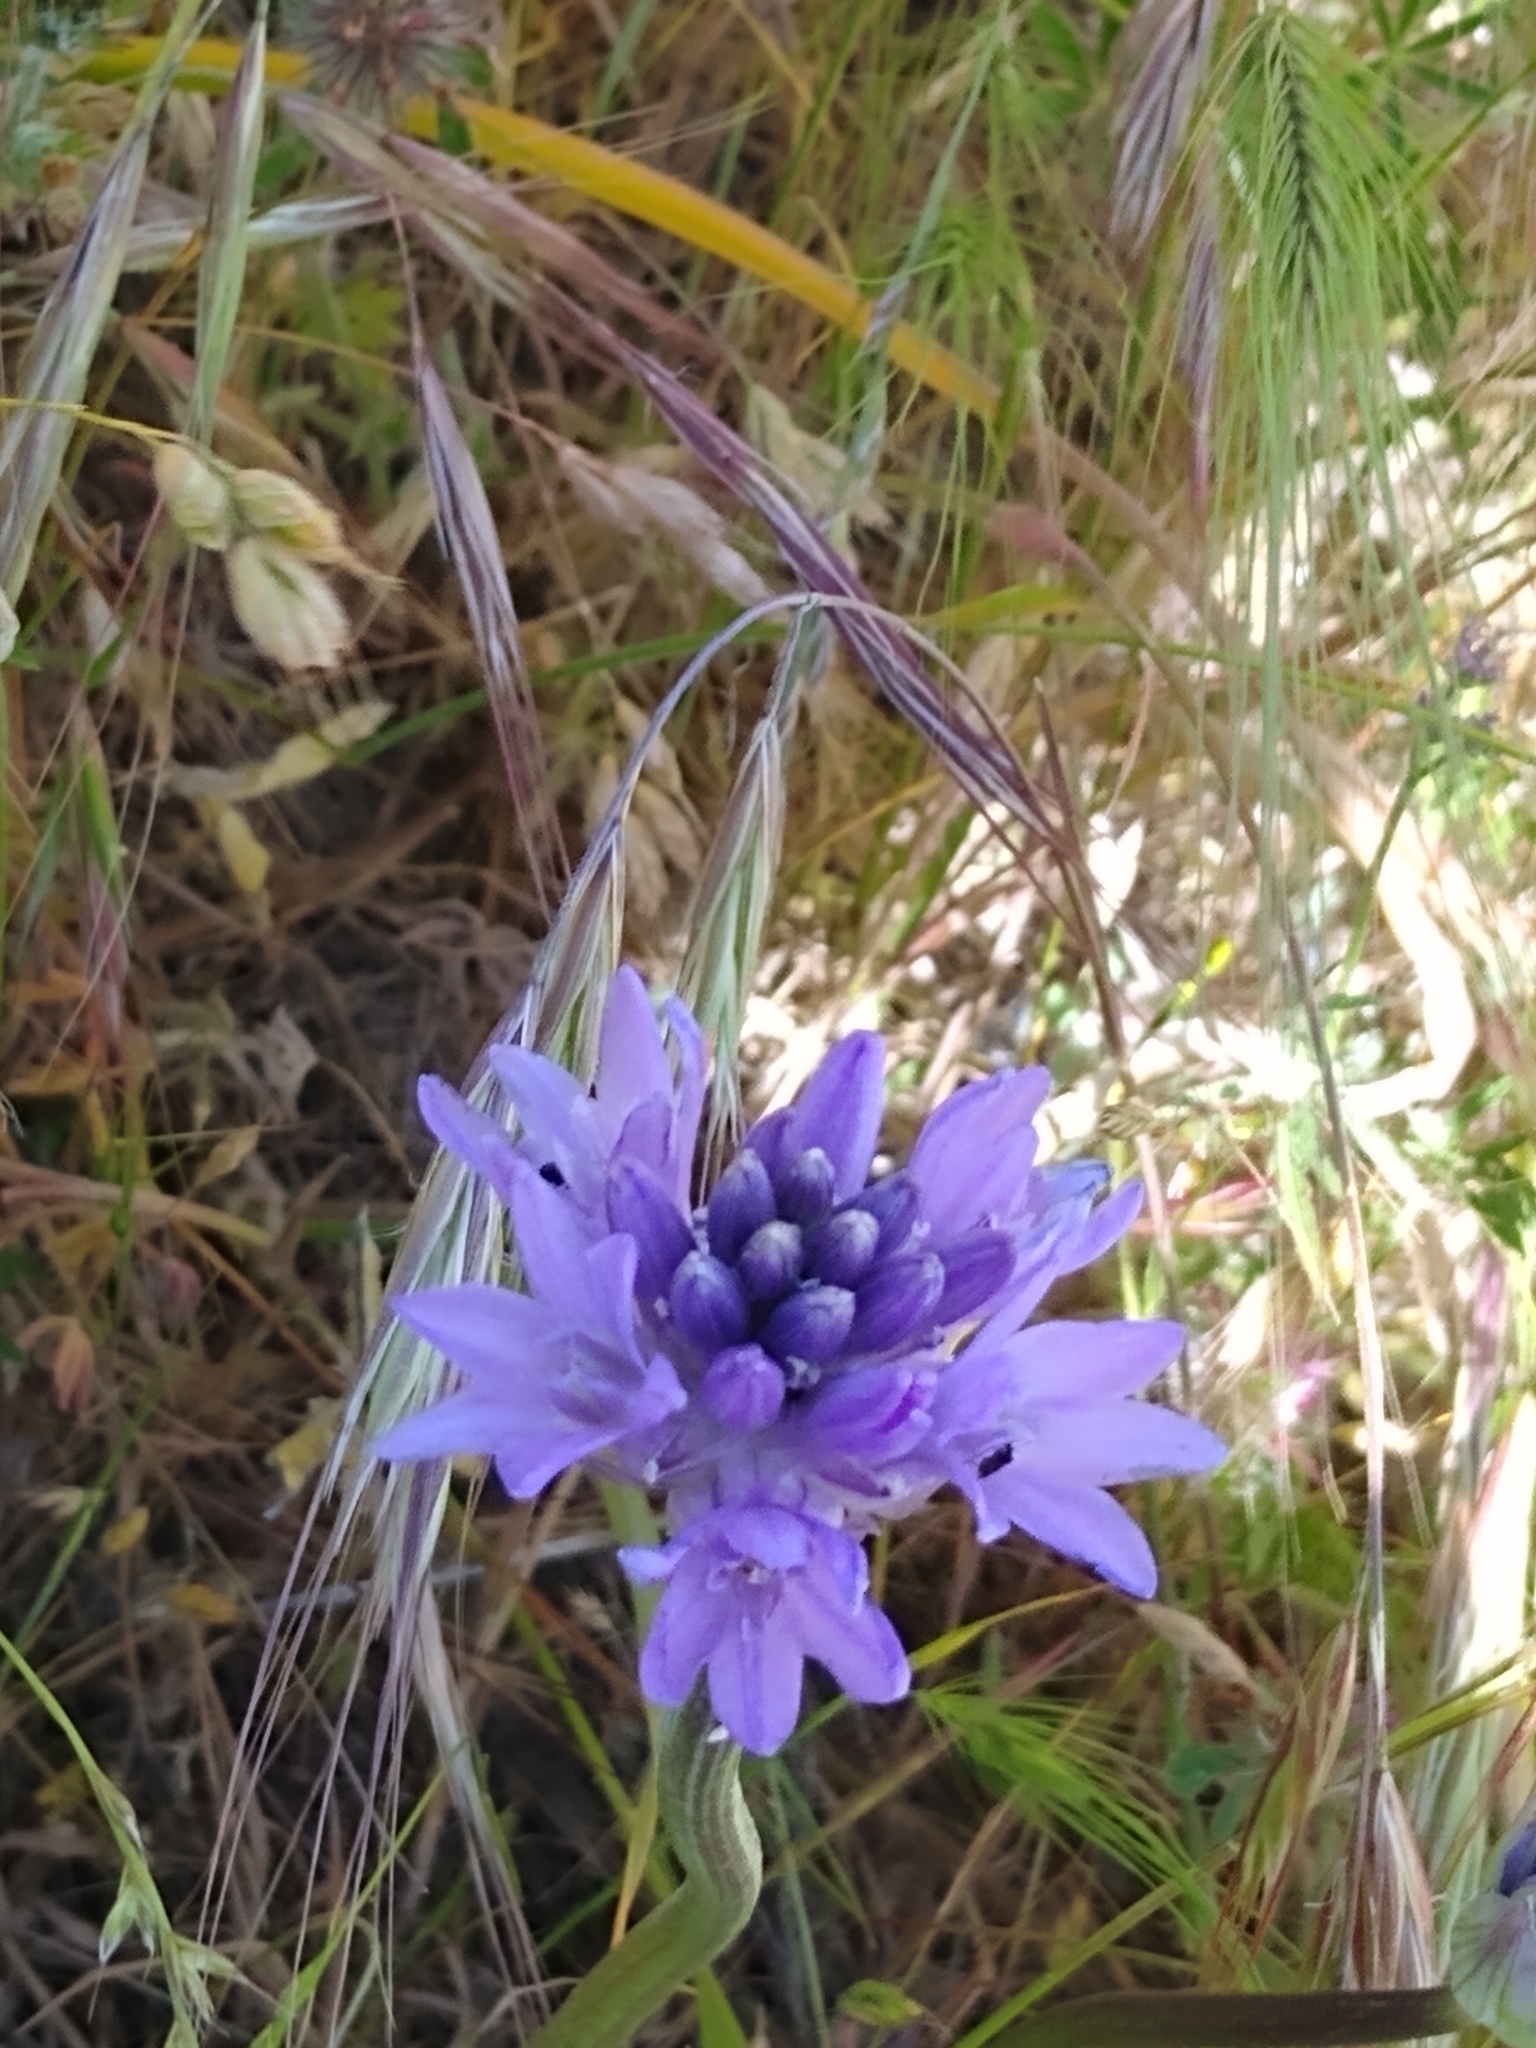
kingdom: Plantae
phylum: Tracheophyta
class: Liliopsida
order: Asparagales
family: Asparagaceae
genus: Dichelostemma
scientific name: Dichelostemma congestum
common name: Fork-tooth ookow
